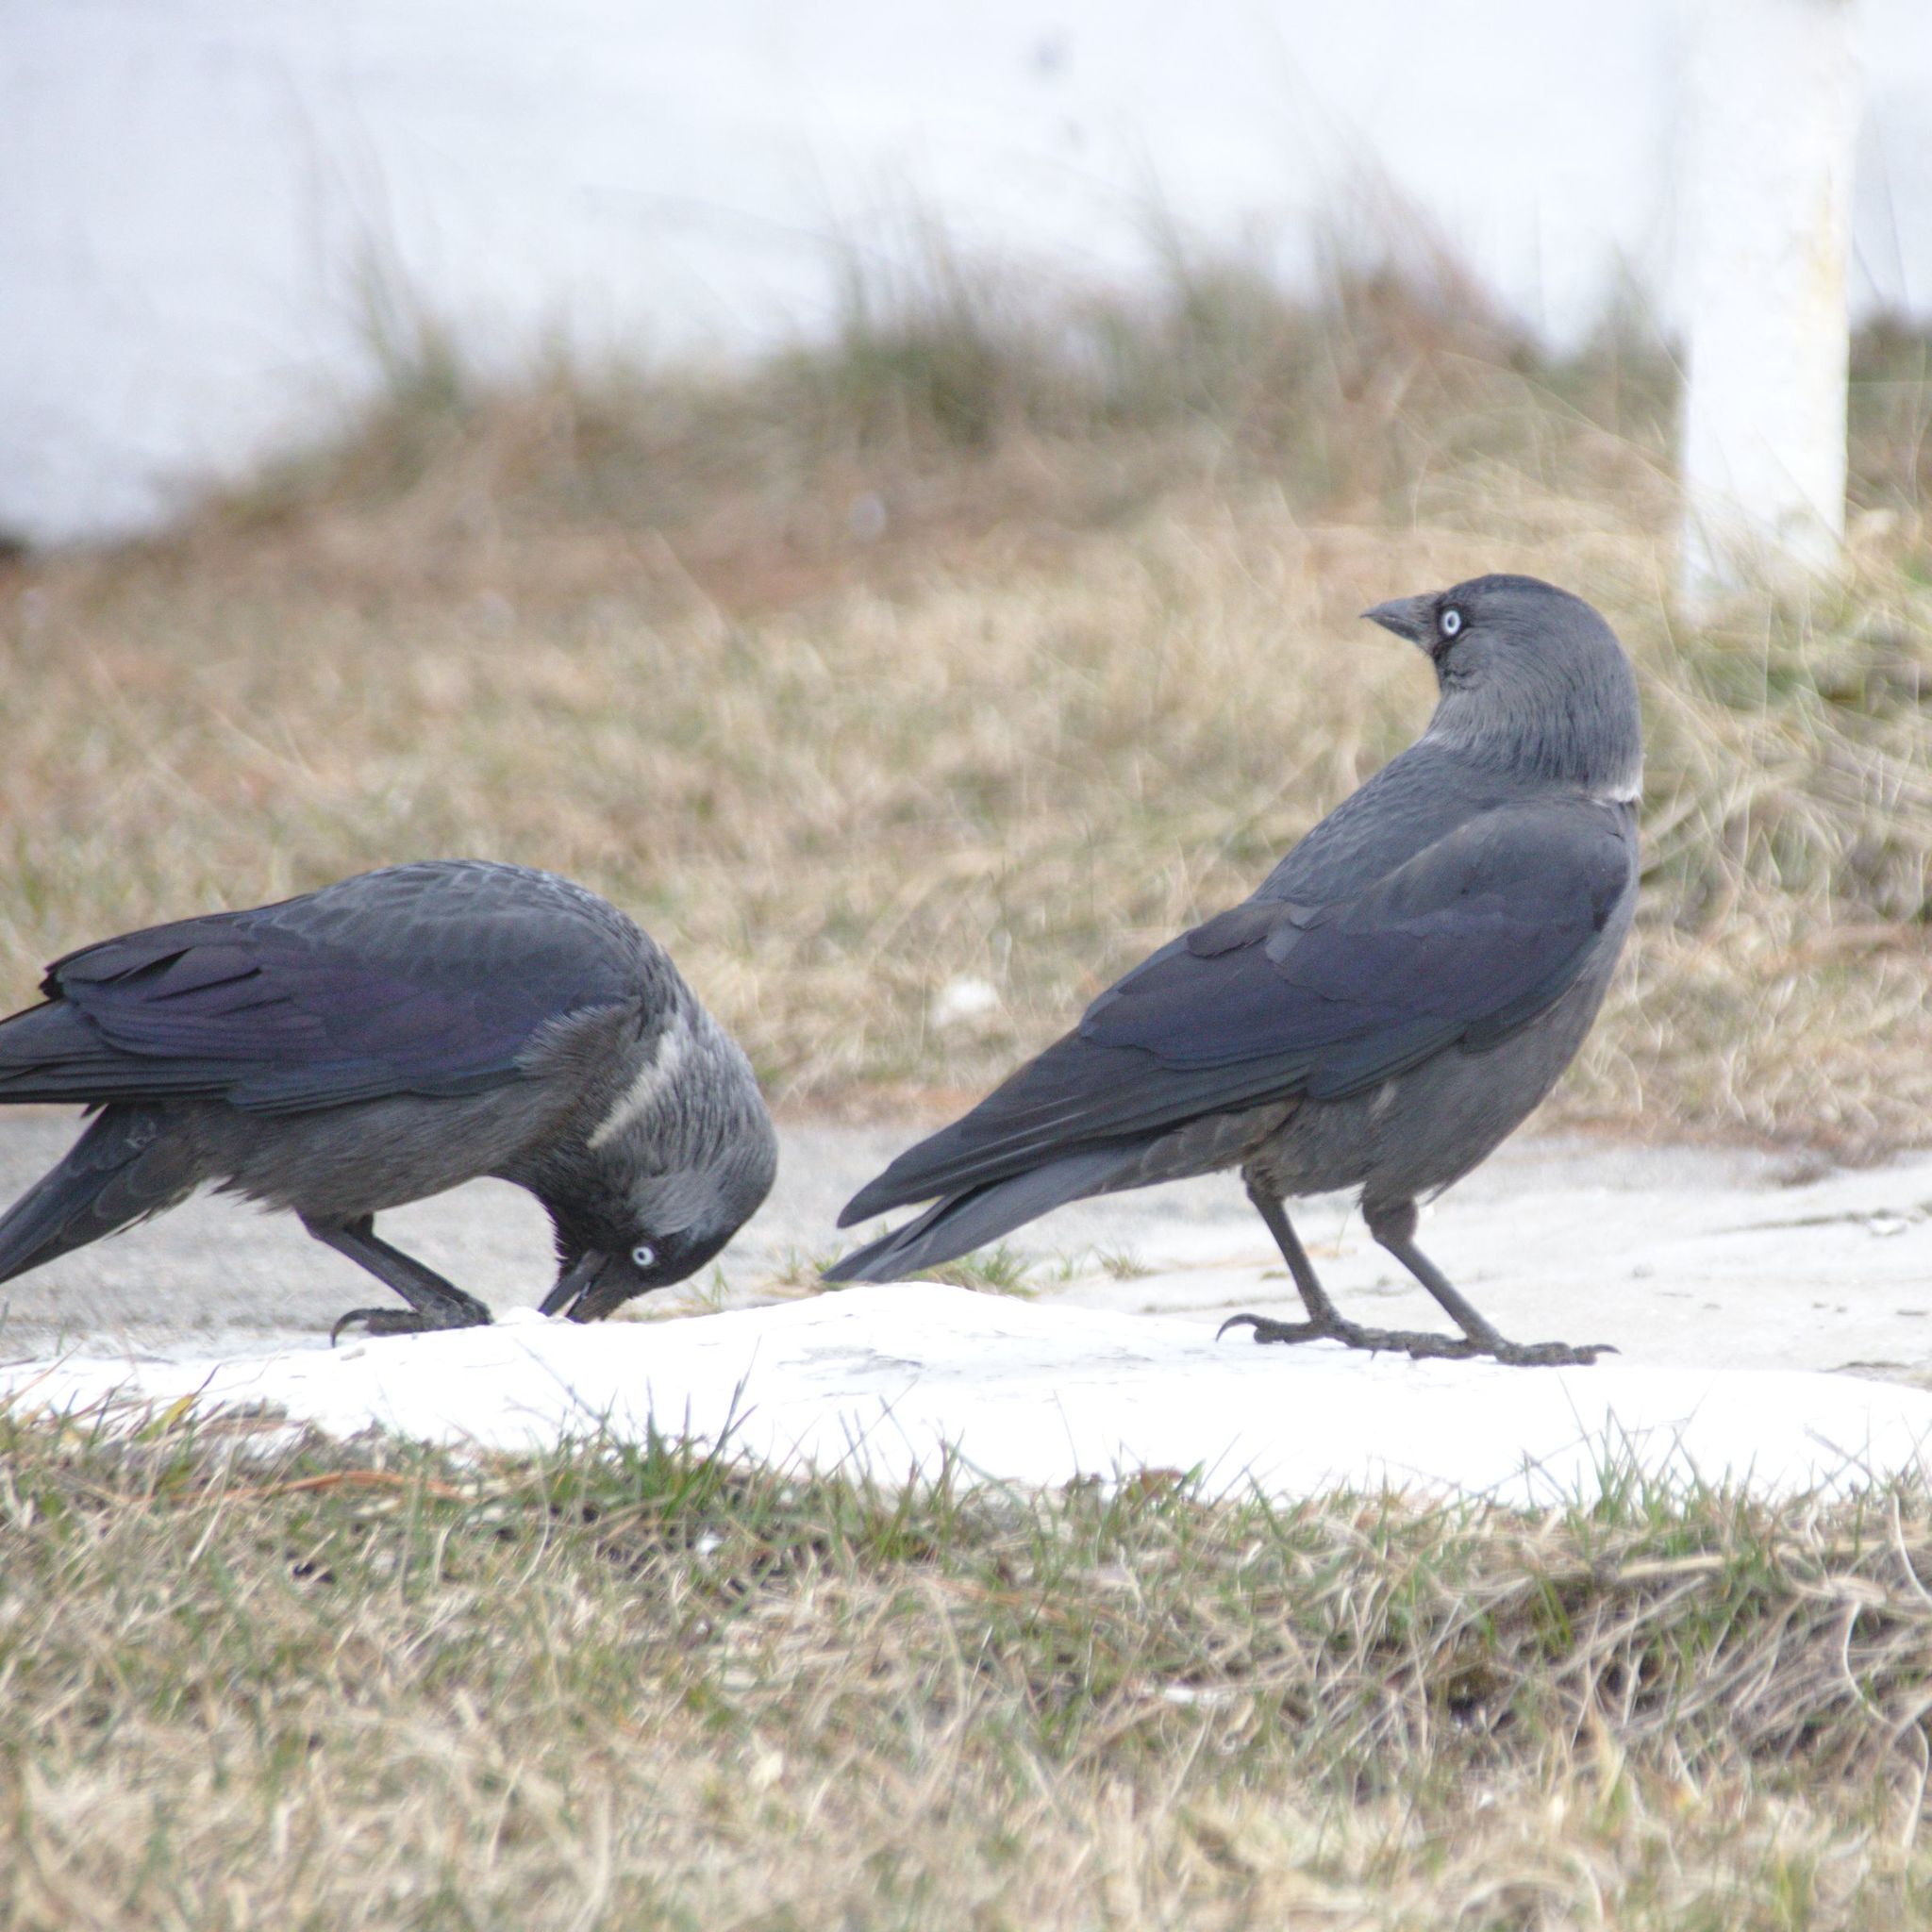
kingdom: Animalia
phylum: Chordata
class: Aves
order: Passeriformes
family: Corvidae
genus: Coloeus
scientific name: Coloeus monedula
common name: Western jackdaw
